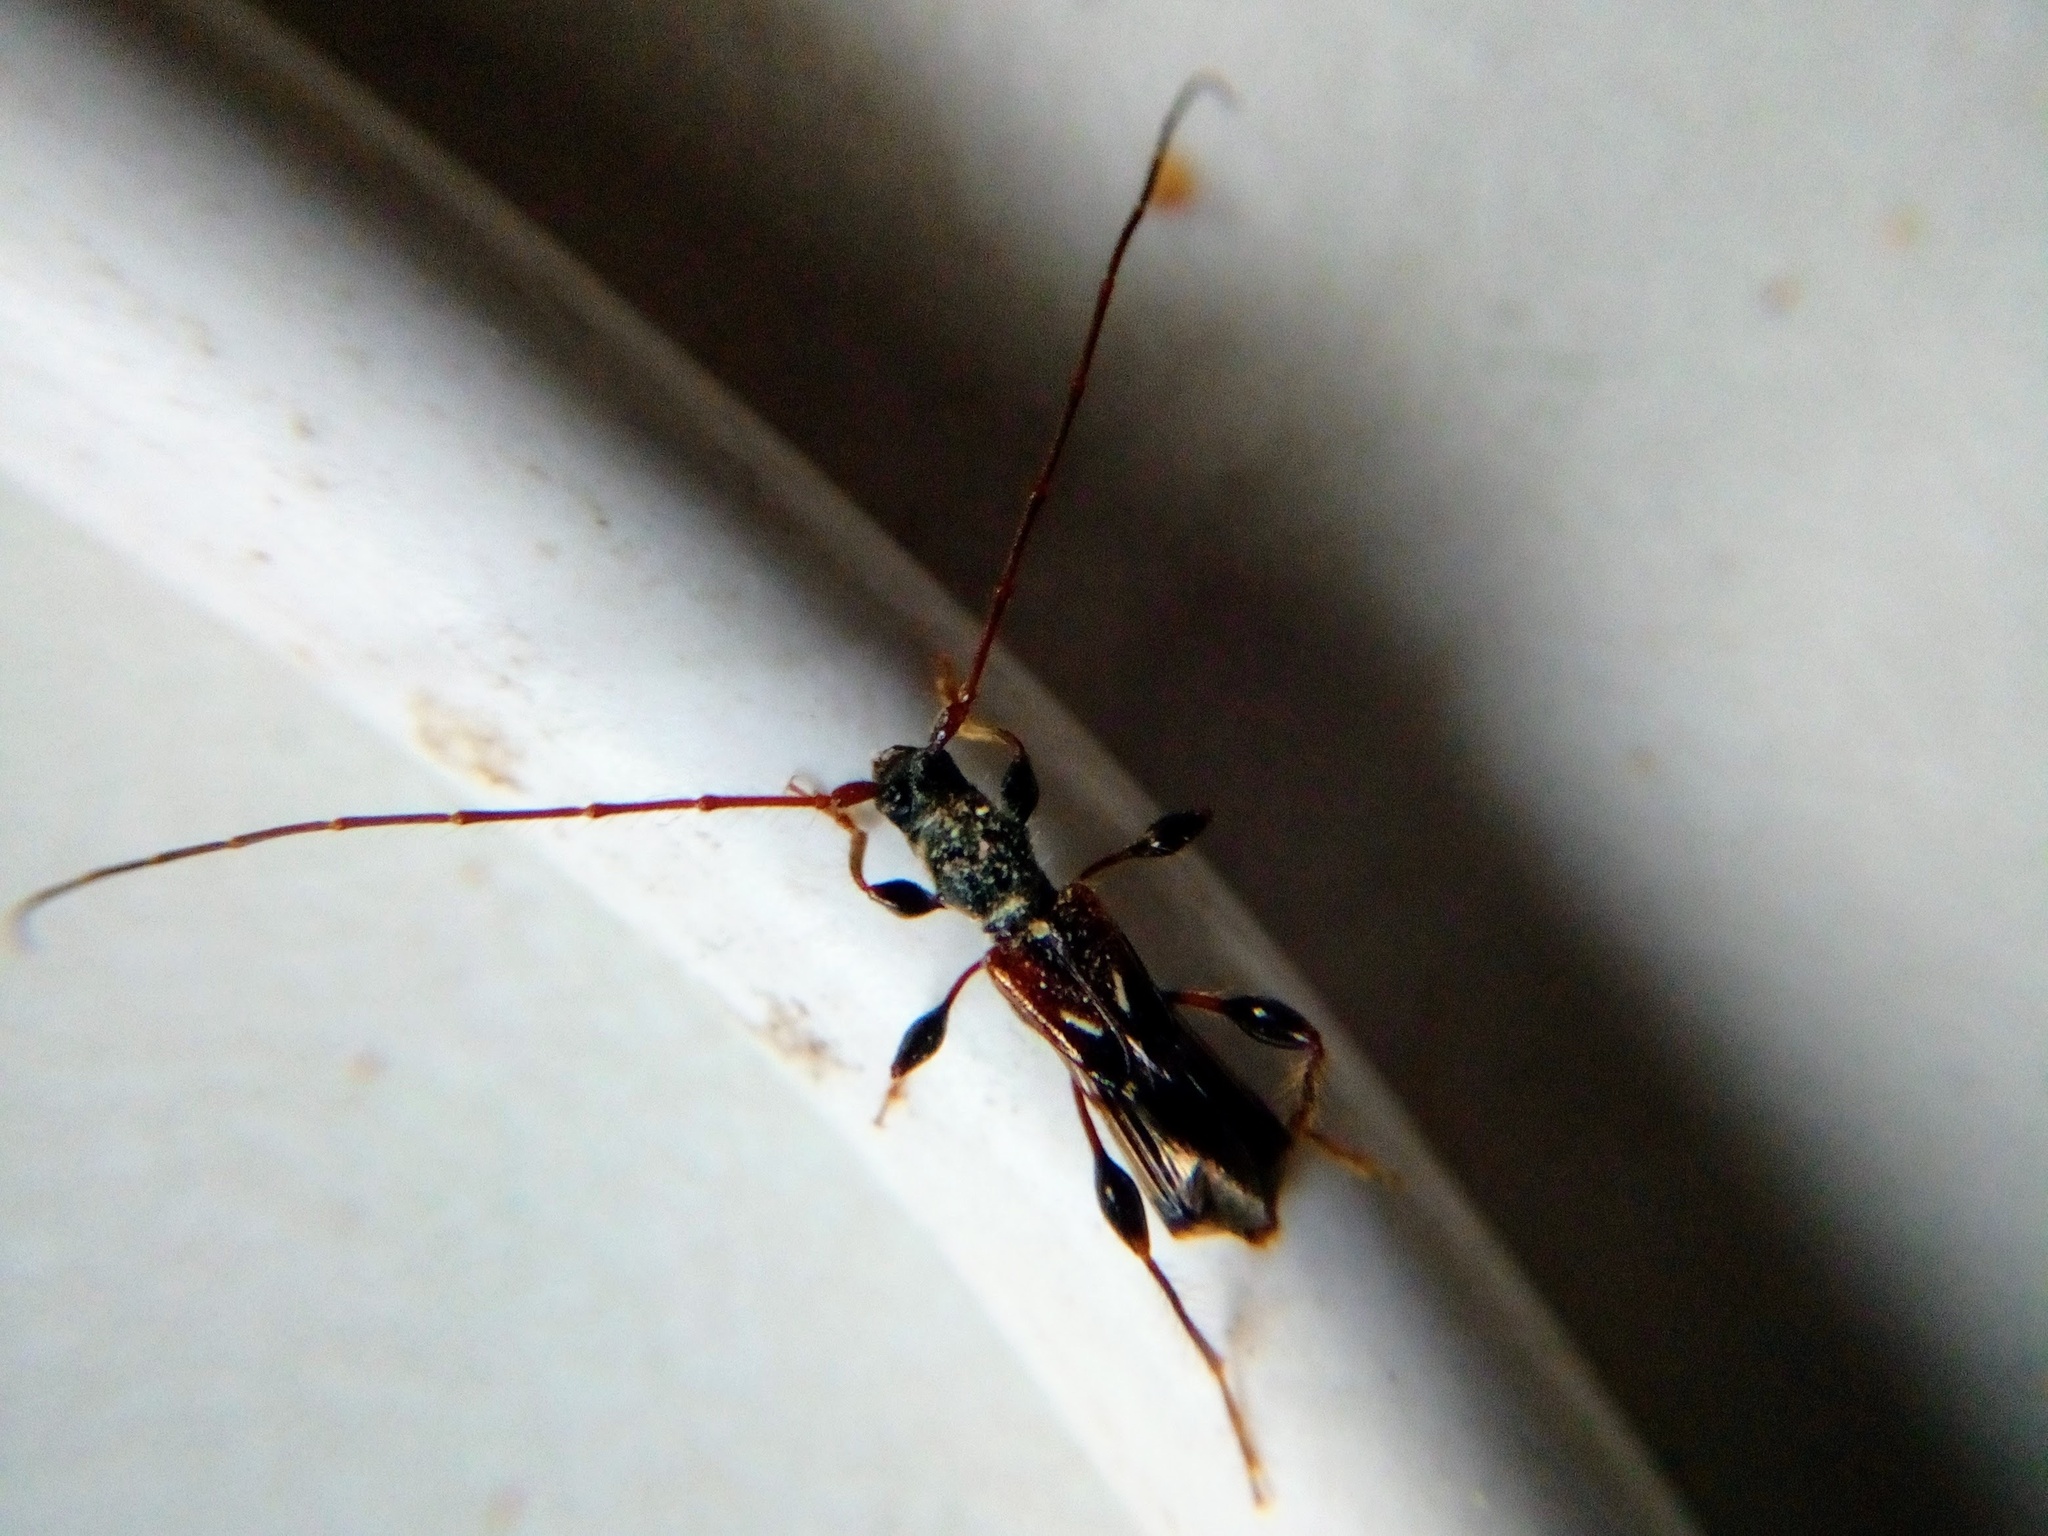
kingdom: Animalia
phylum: Arthropoda
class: Insecta
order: Coleoptera
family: Cerambycidae
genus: Molorchus
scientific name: Molorchus minor
